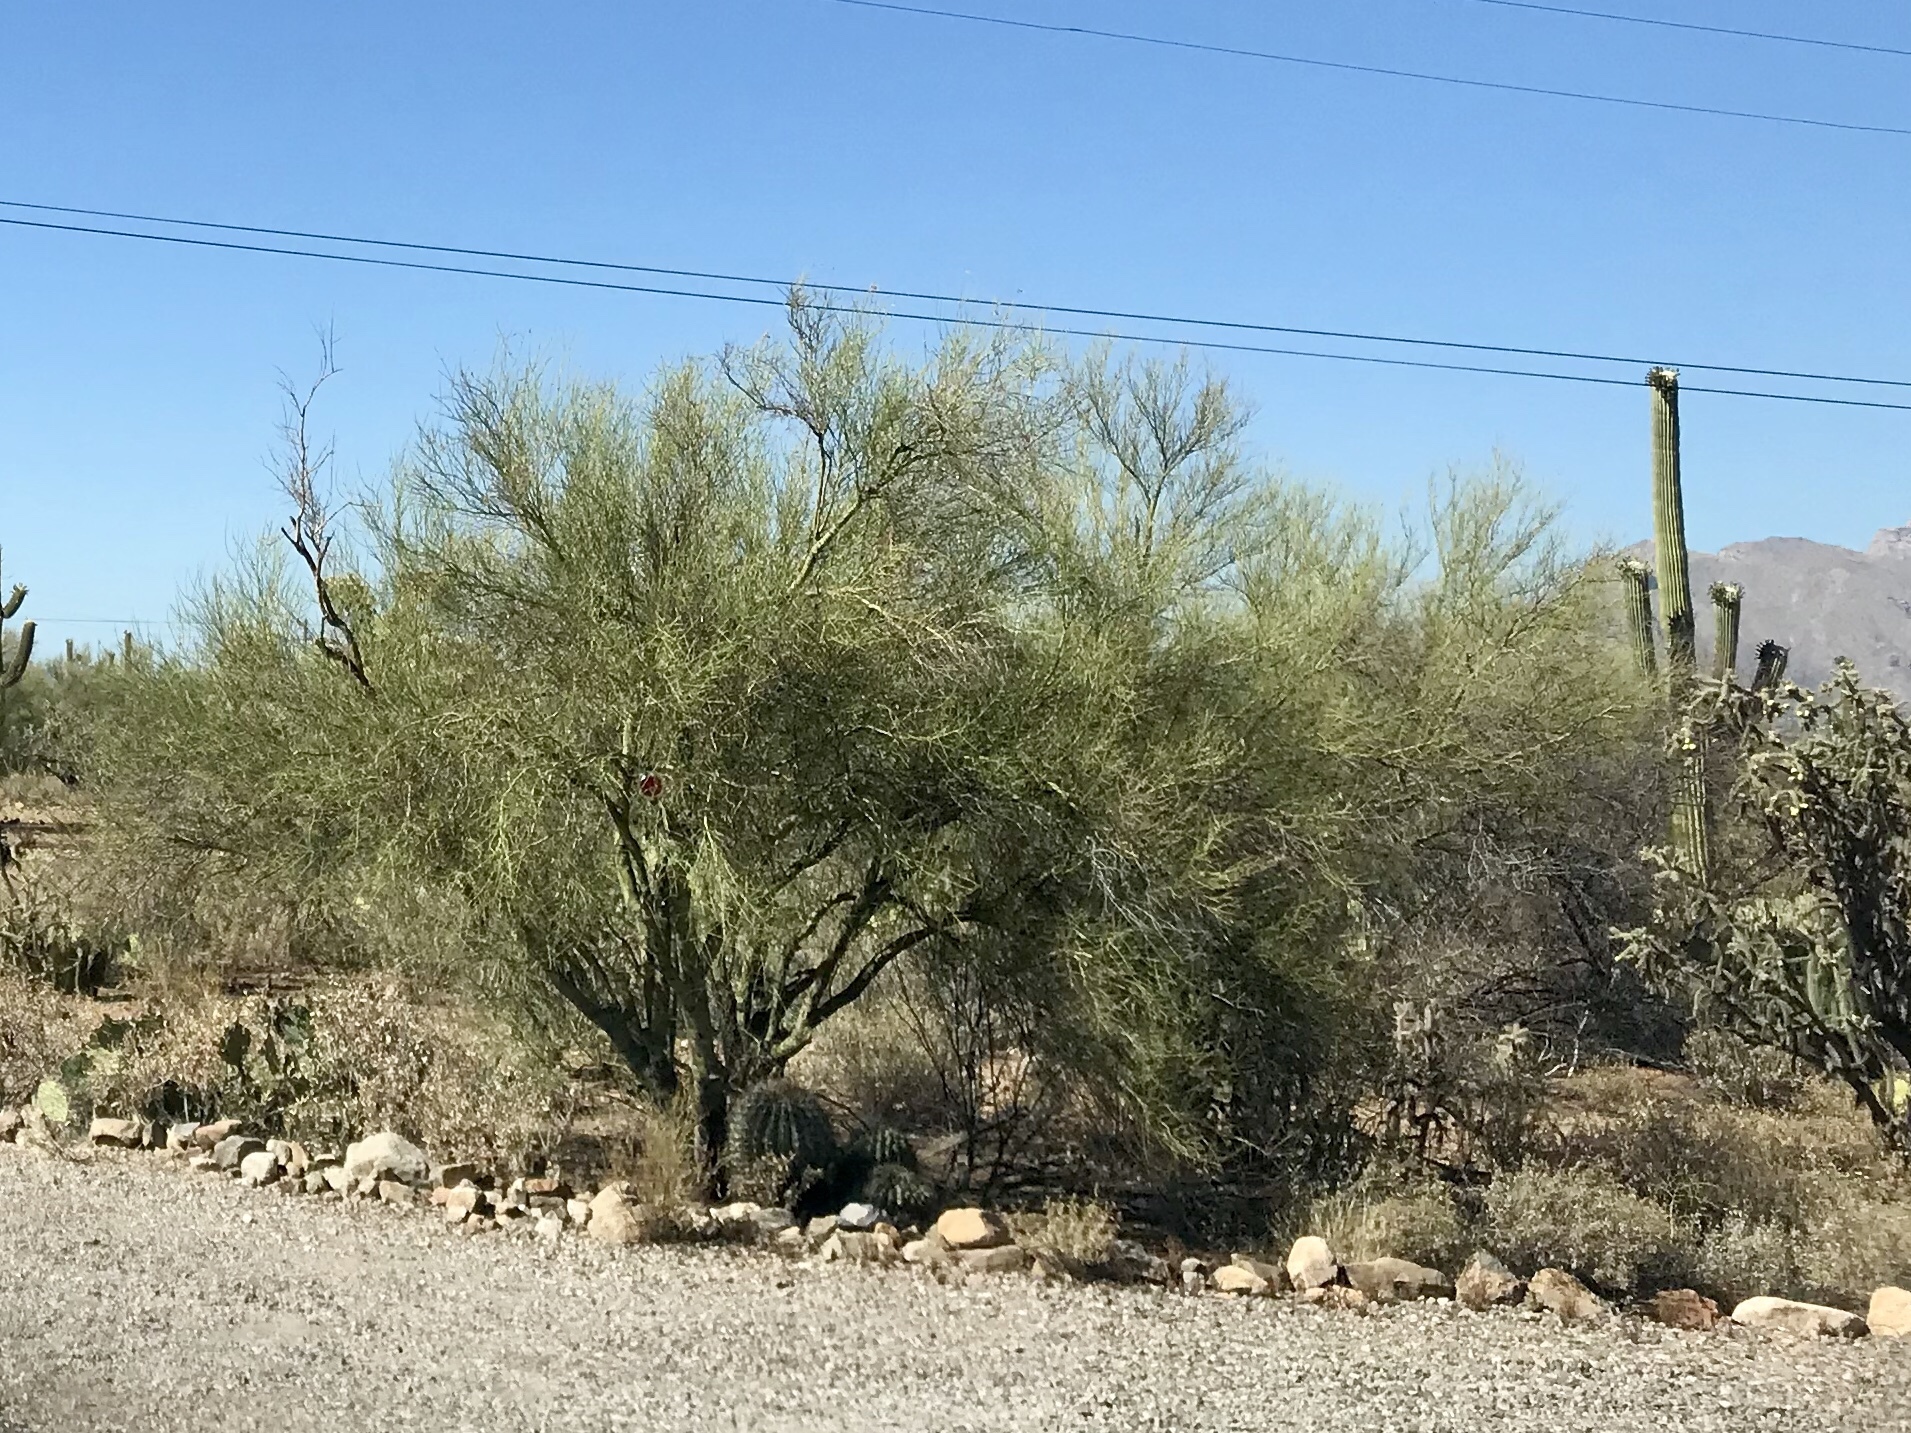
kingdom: Plantae
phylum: Tracheophyta
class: Magnoliopsida
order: Fabales
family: Fabaceae
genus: Parkinsonia
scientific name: Parkinsonia microphylla
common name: Yellow paloverde
